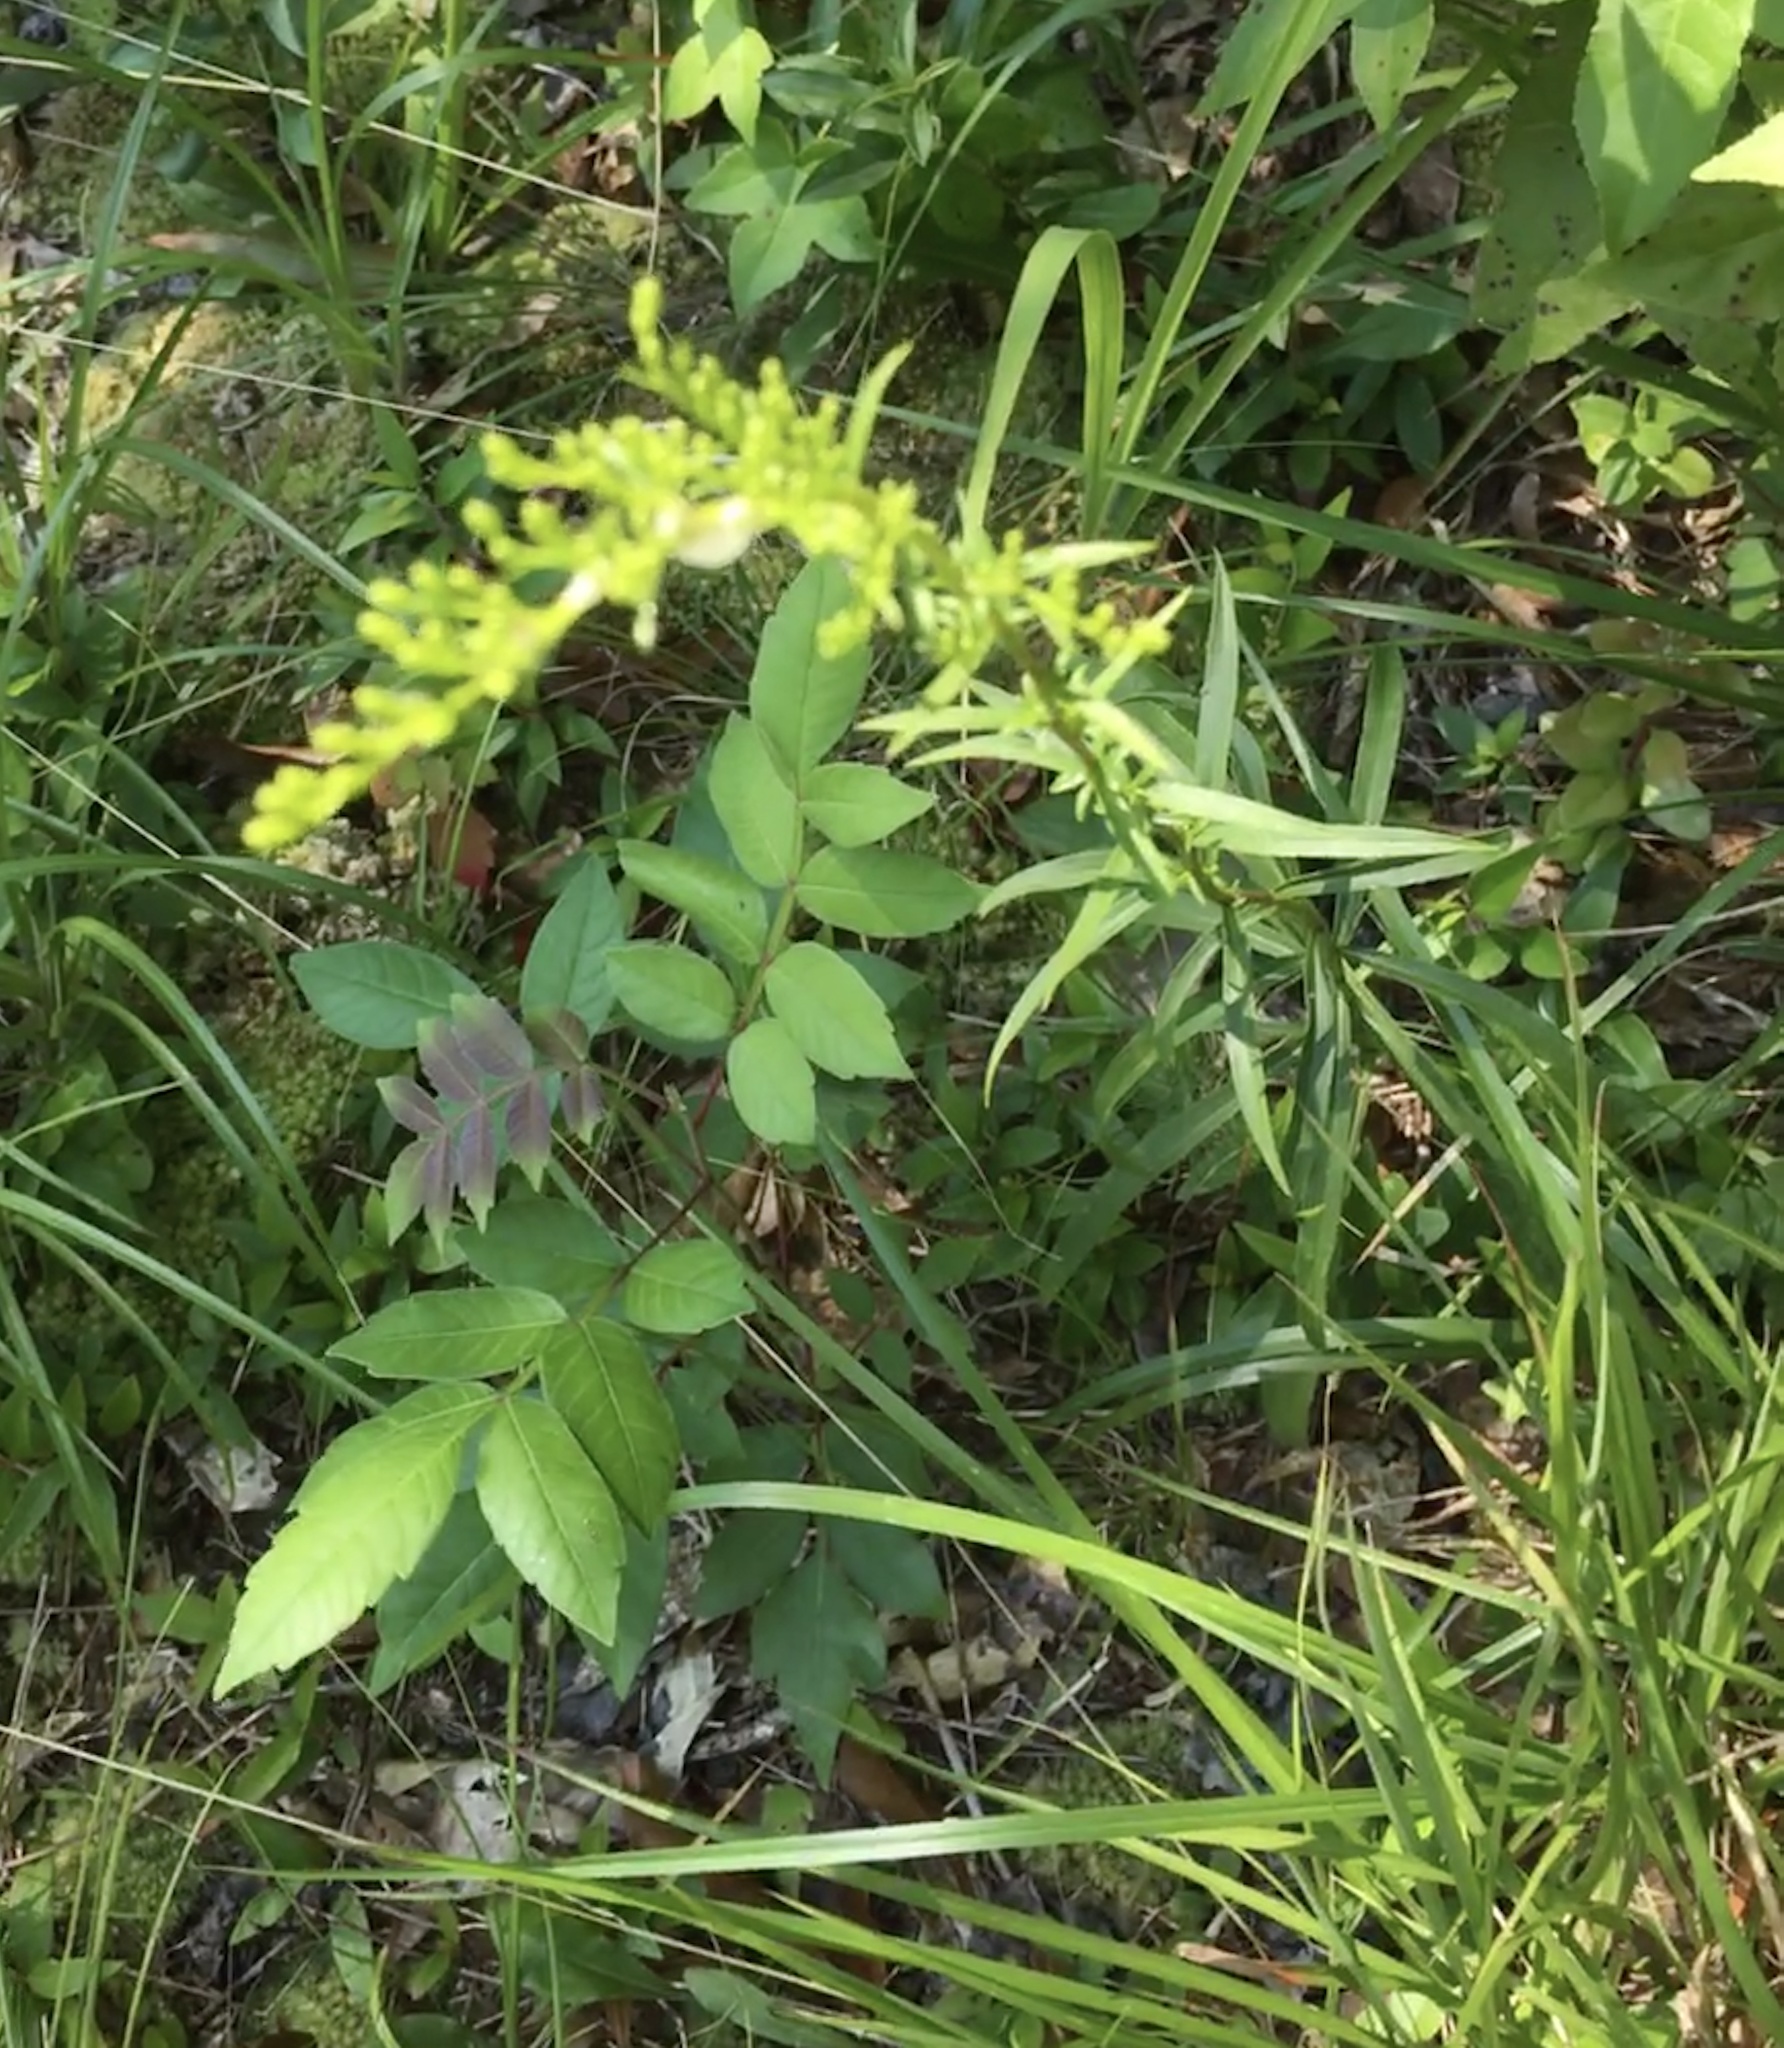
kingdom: Plantae
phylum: Tracheophyta
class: Magnoliopsida
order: Asterales
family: Asteraceae
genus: Solidago
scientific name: Solidago pinetorum
